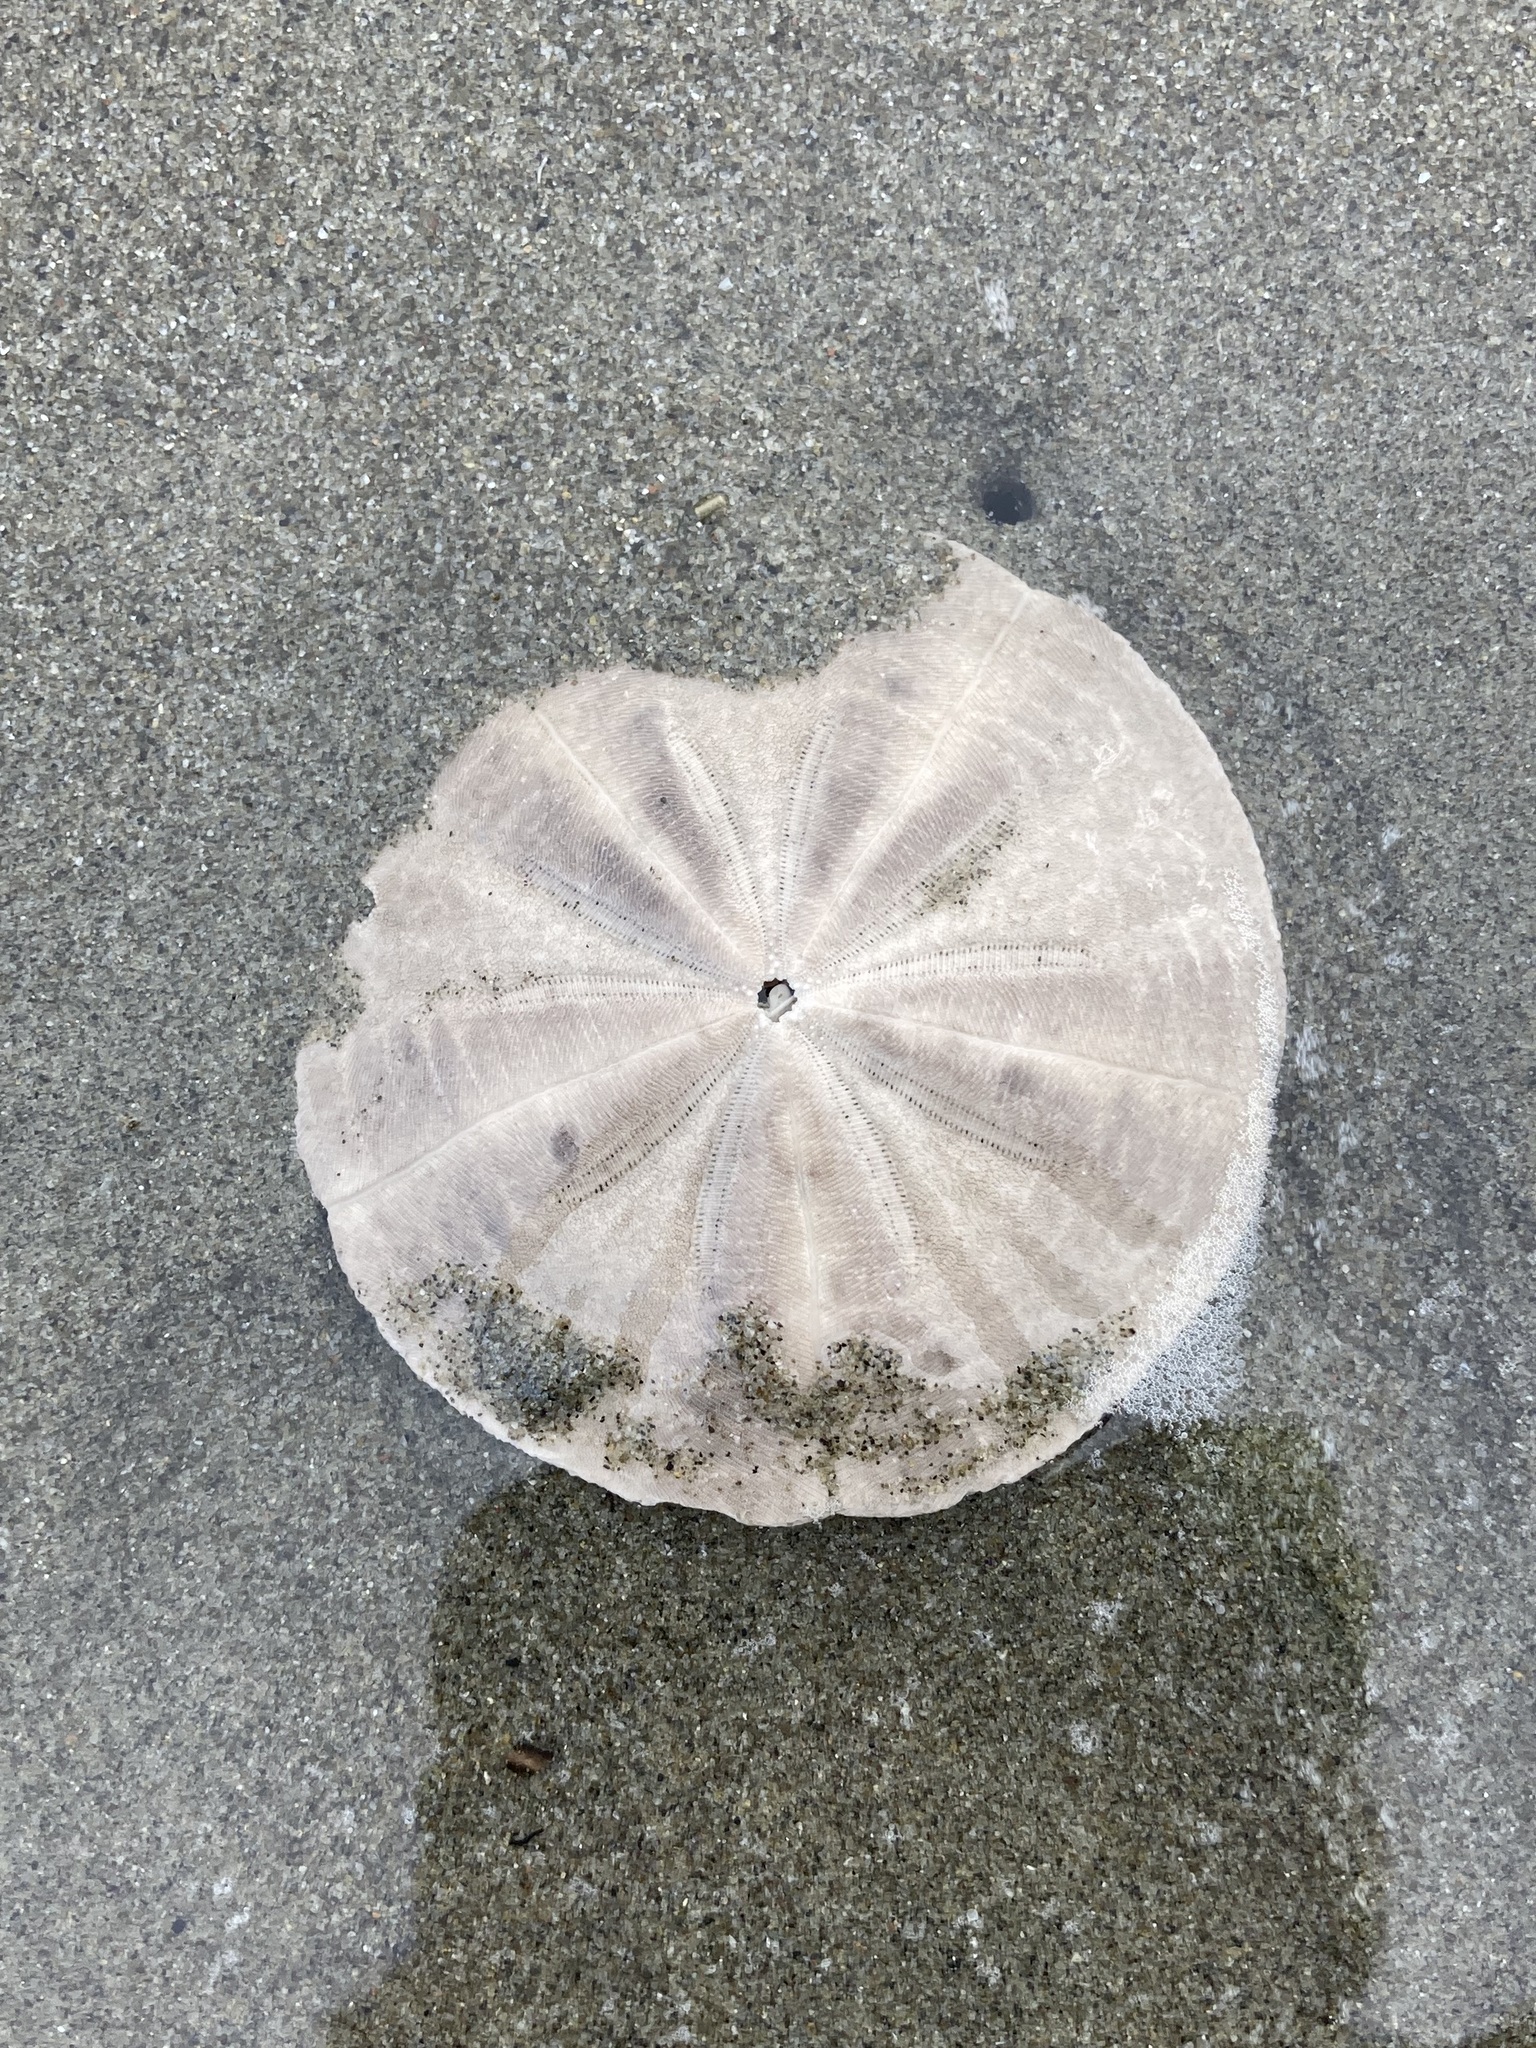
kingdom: Animalia
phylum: Echinodermata
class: Echinoidea
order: Clypeasteroida
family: Clypeasteridae
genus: Fellaster
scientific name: Fellaster zelandiae
